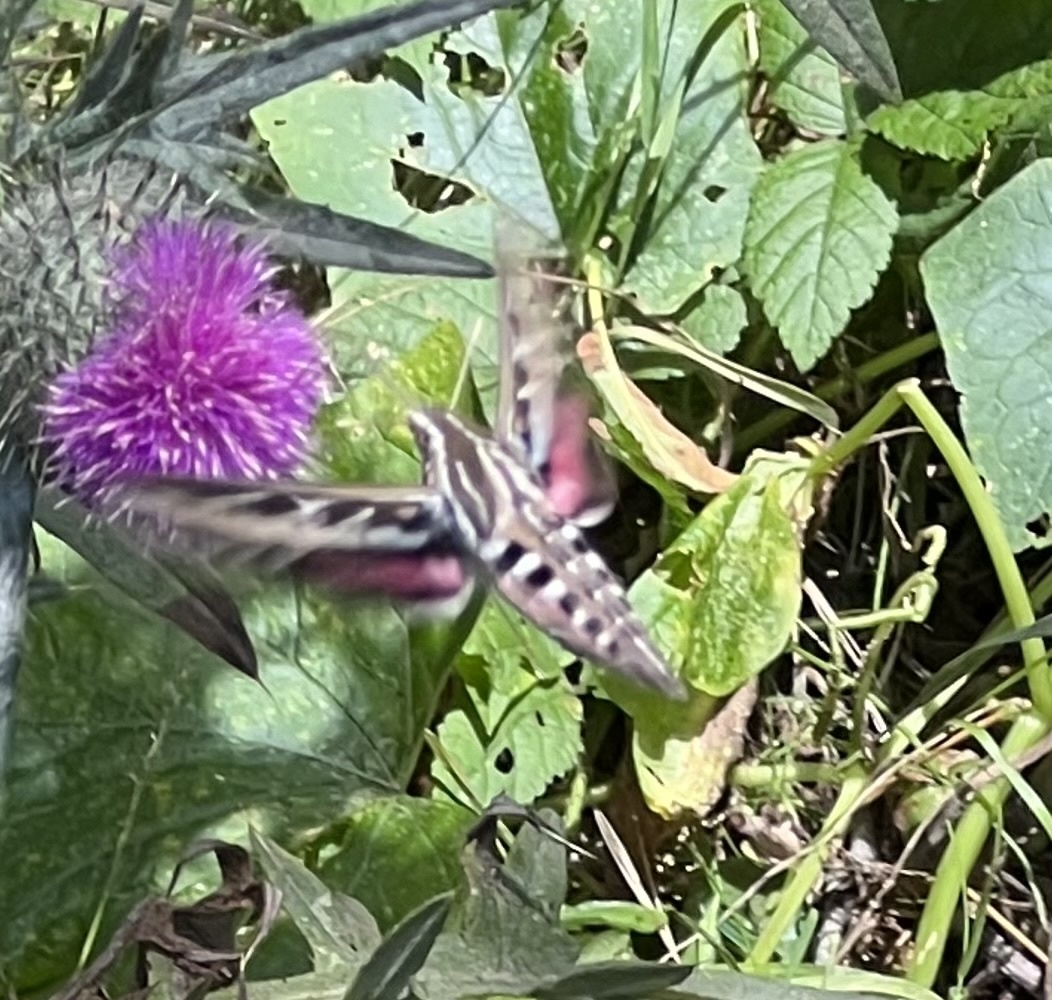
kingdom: Animalia
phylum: Arthropoda
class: Insecta
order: Lepidoptera
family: Sphingidae
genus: Hyles
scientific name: Hyles lineata
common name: White-lined sphinx
